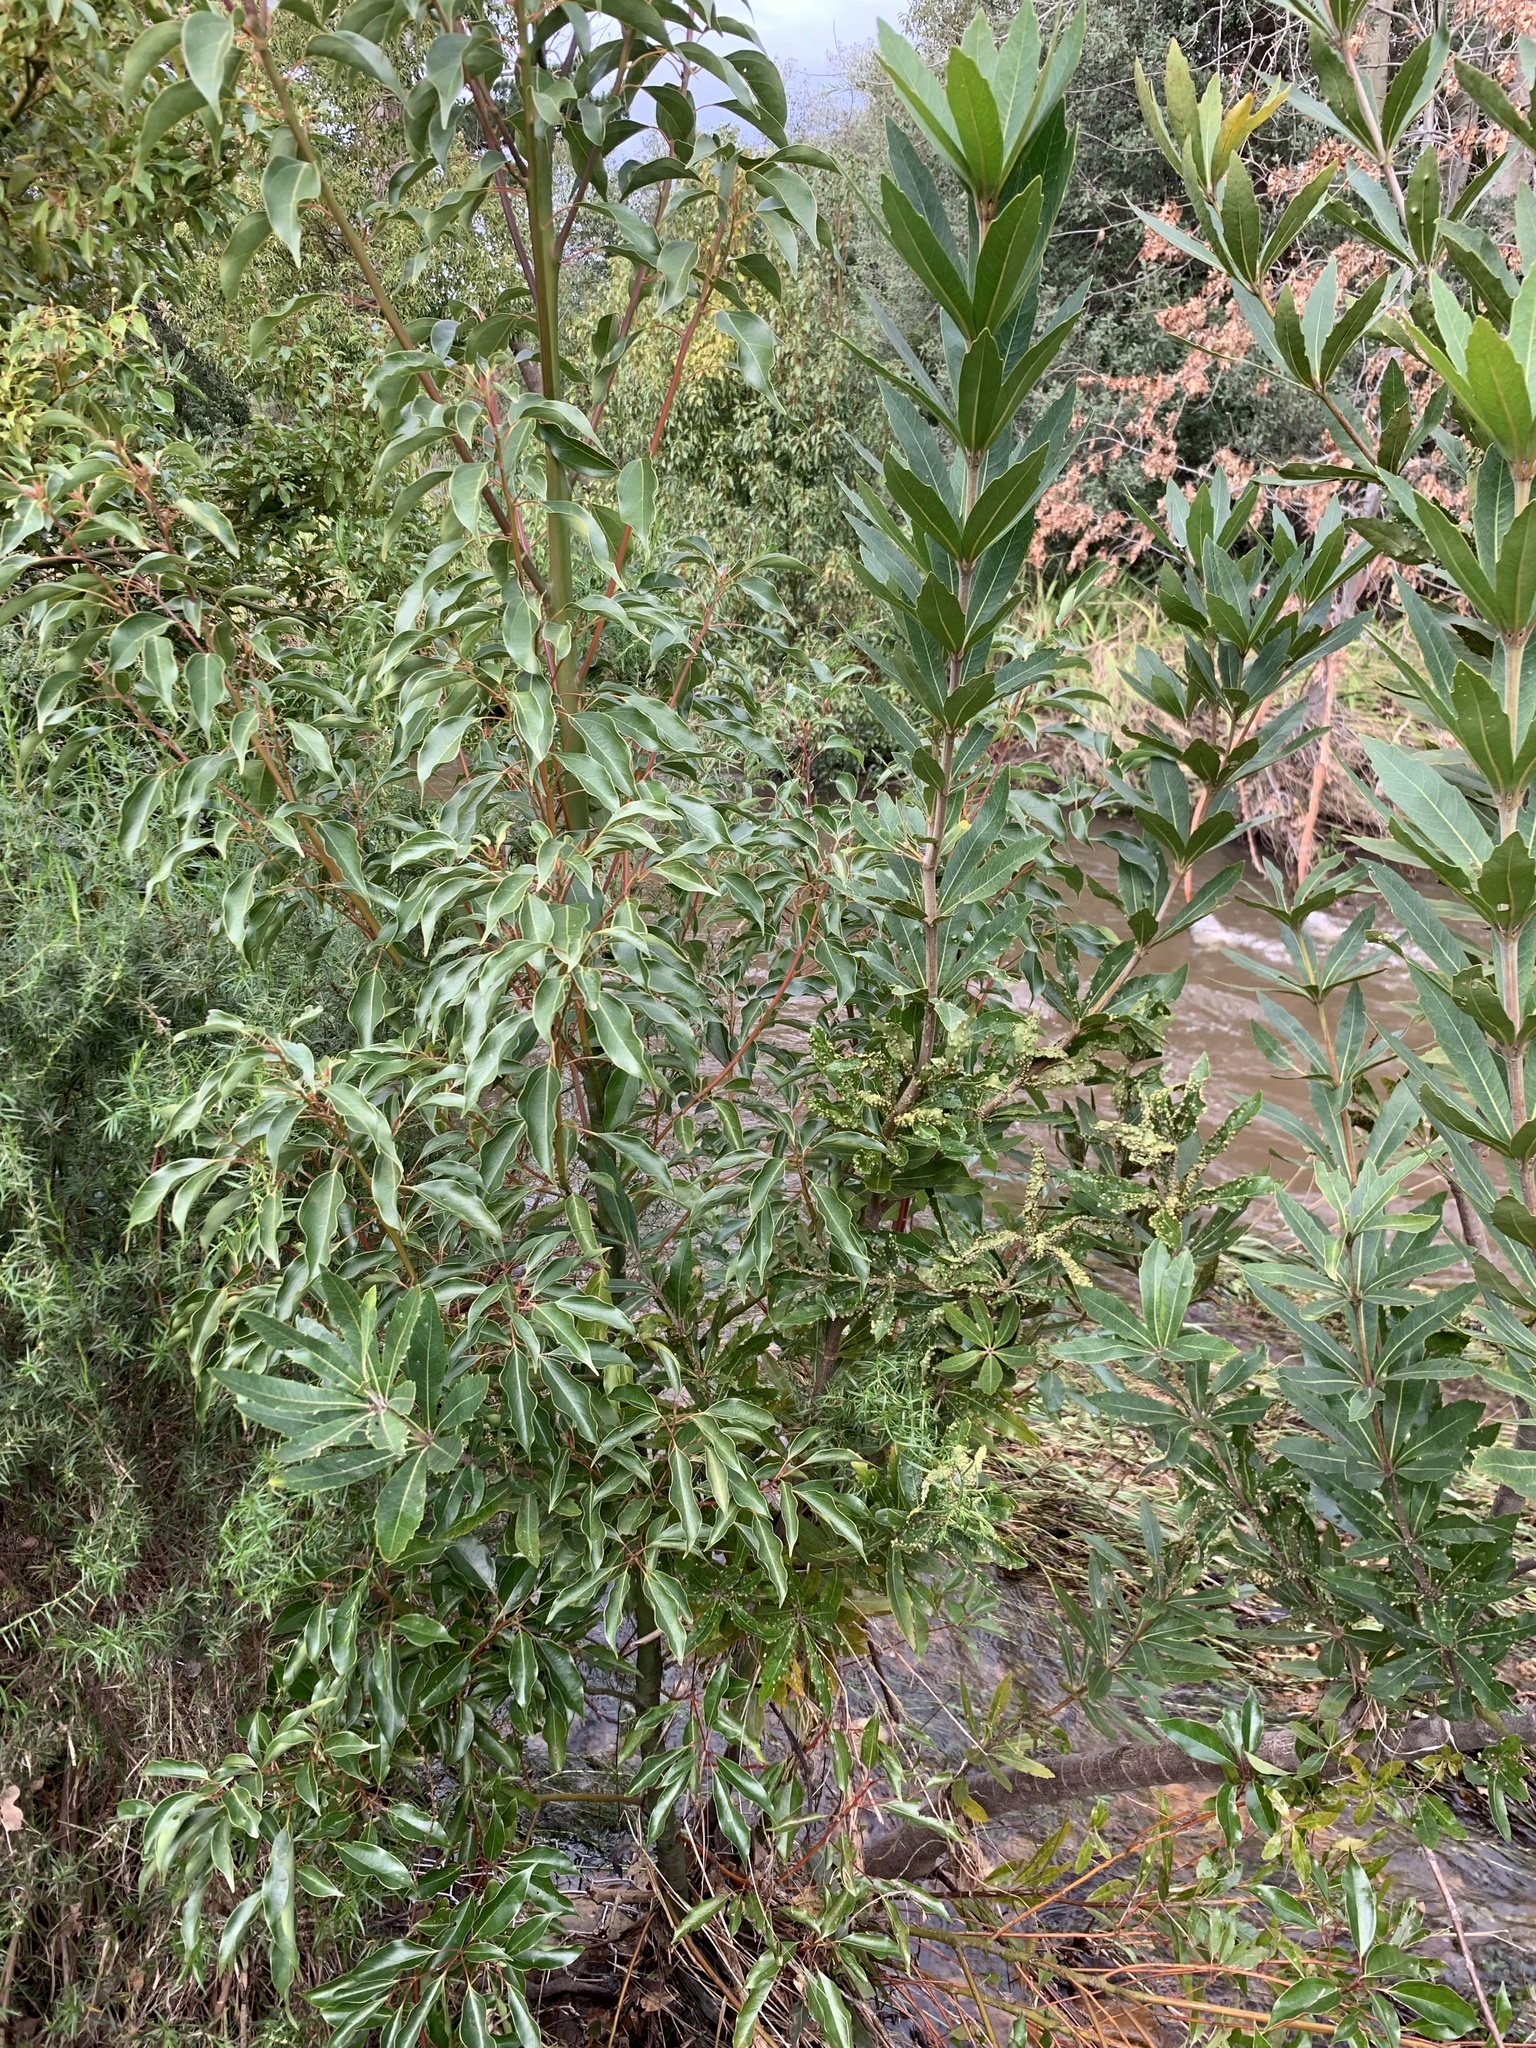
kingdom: Plantae
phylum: Tracheophyta
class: Magnoliopsida
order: Laurales
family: Lauraceae
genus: Cinnamomum
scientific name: Cinnamomum camphora
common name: Camphortree
